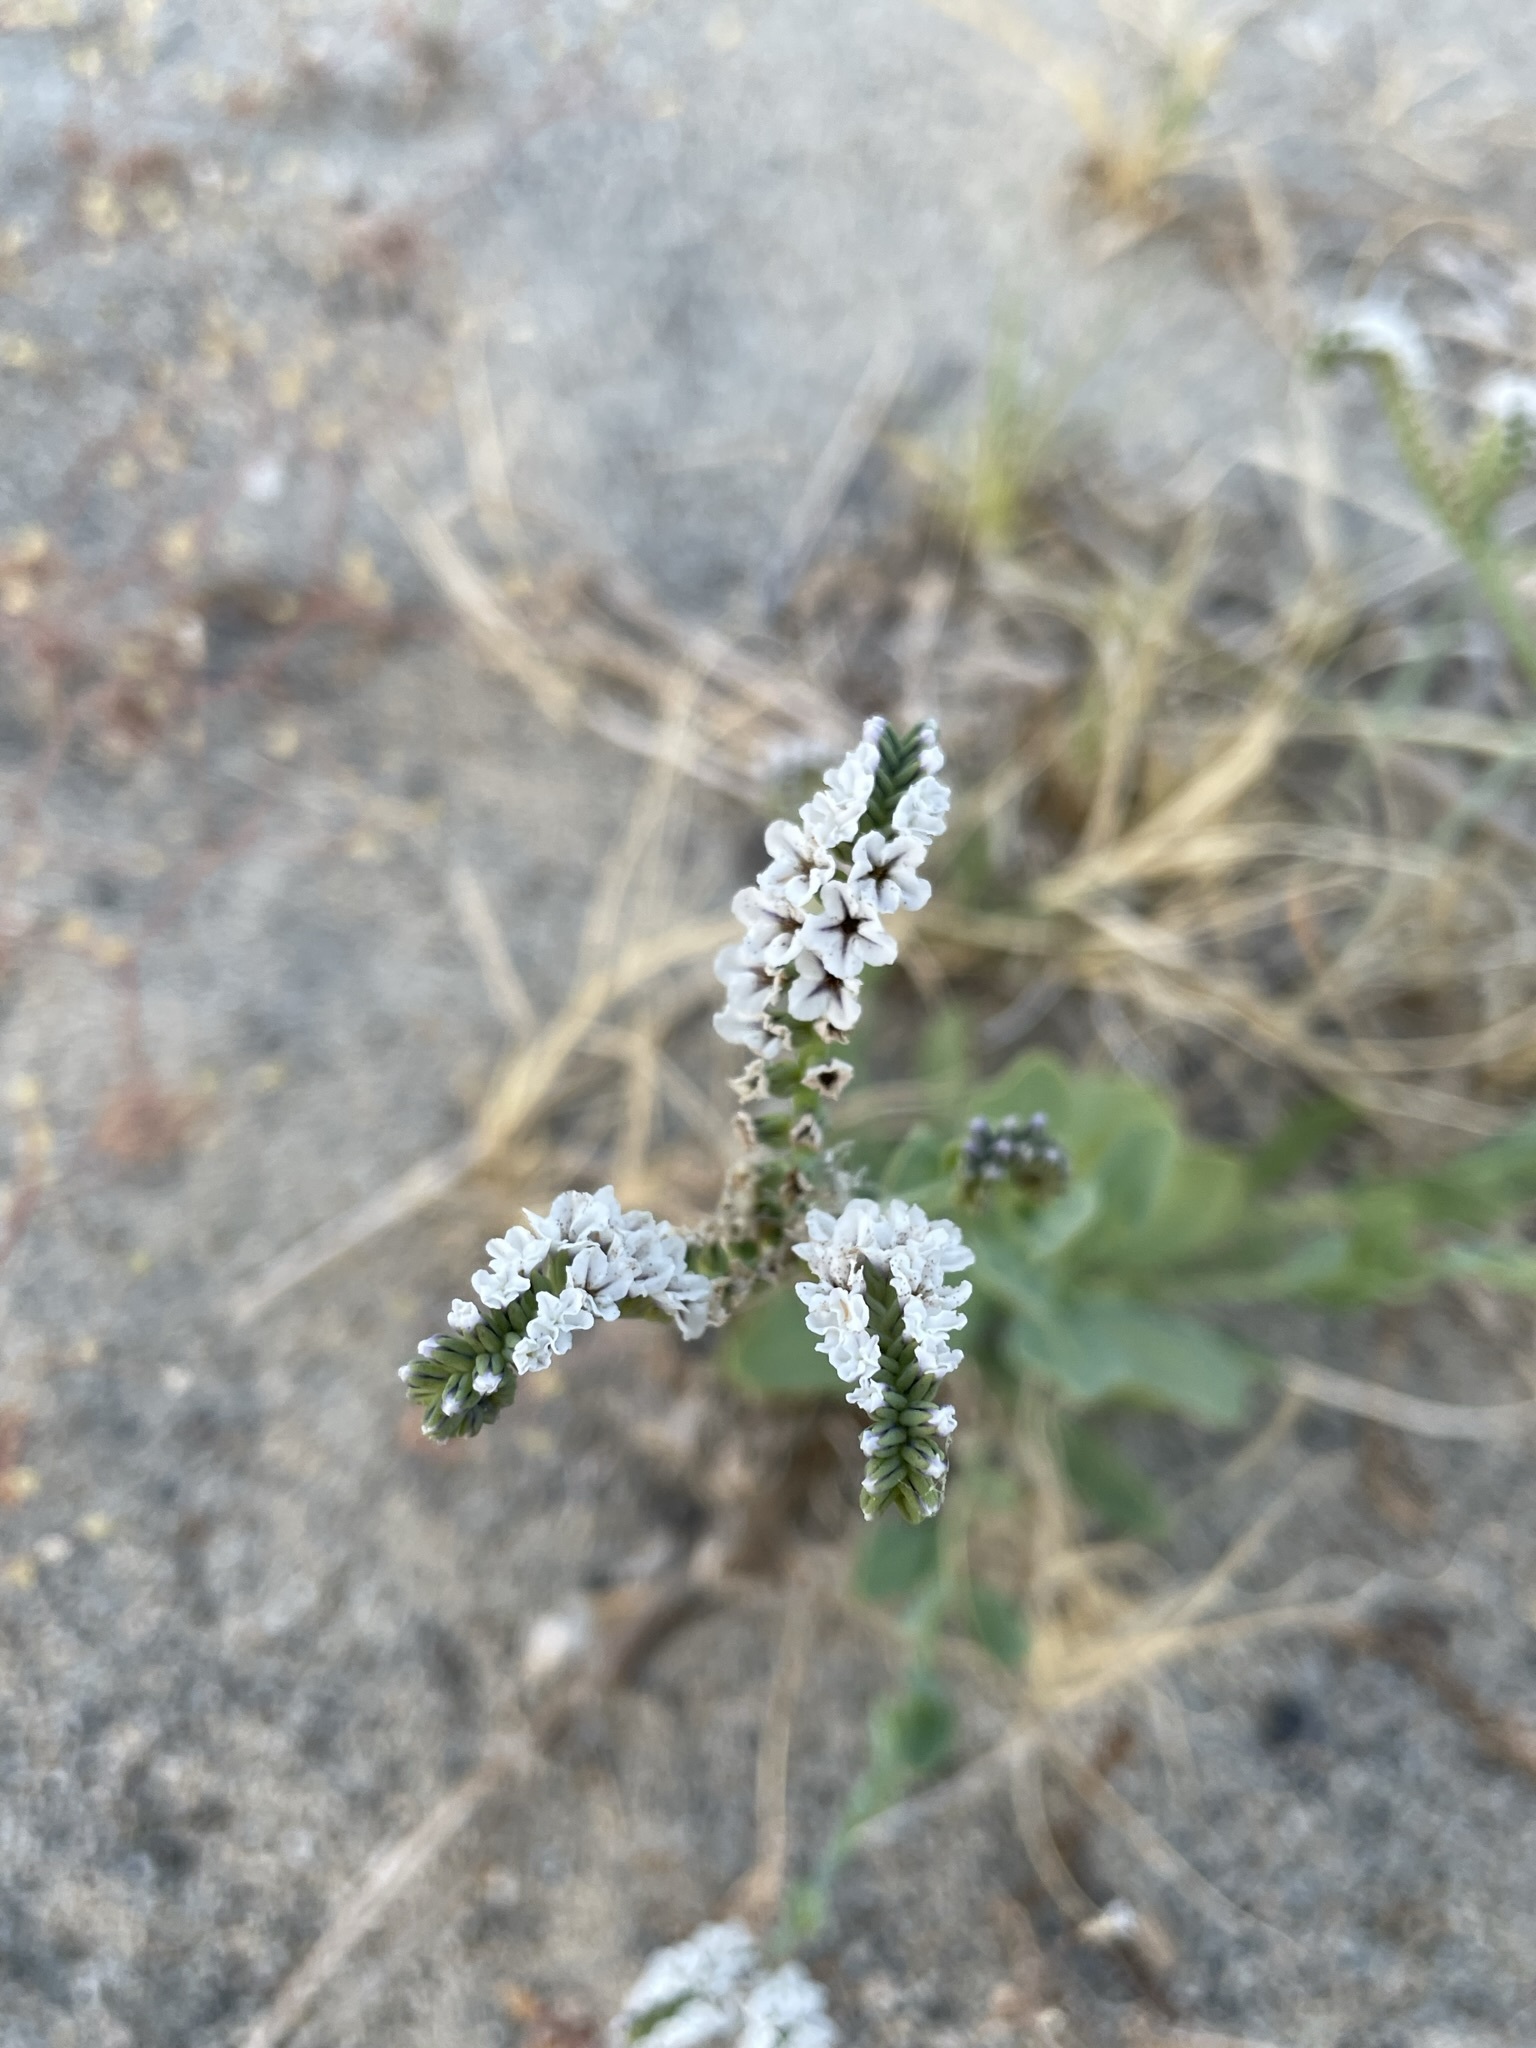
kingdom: Plantae
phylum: Tracheophyta
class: Magnoliopsida
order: Boraginales
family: Heliotropiaceae
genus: Heliotropium
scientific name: Heliotropium curassavicum
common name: Seaside heliotrope
